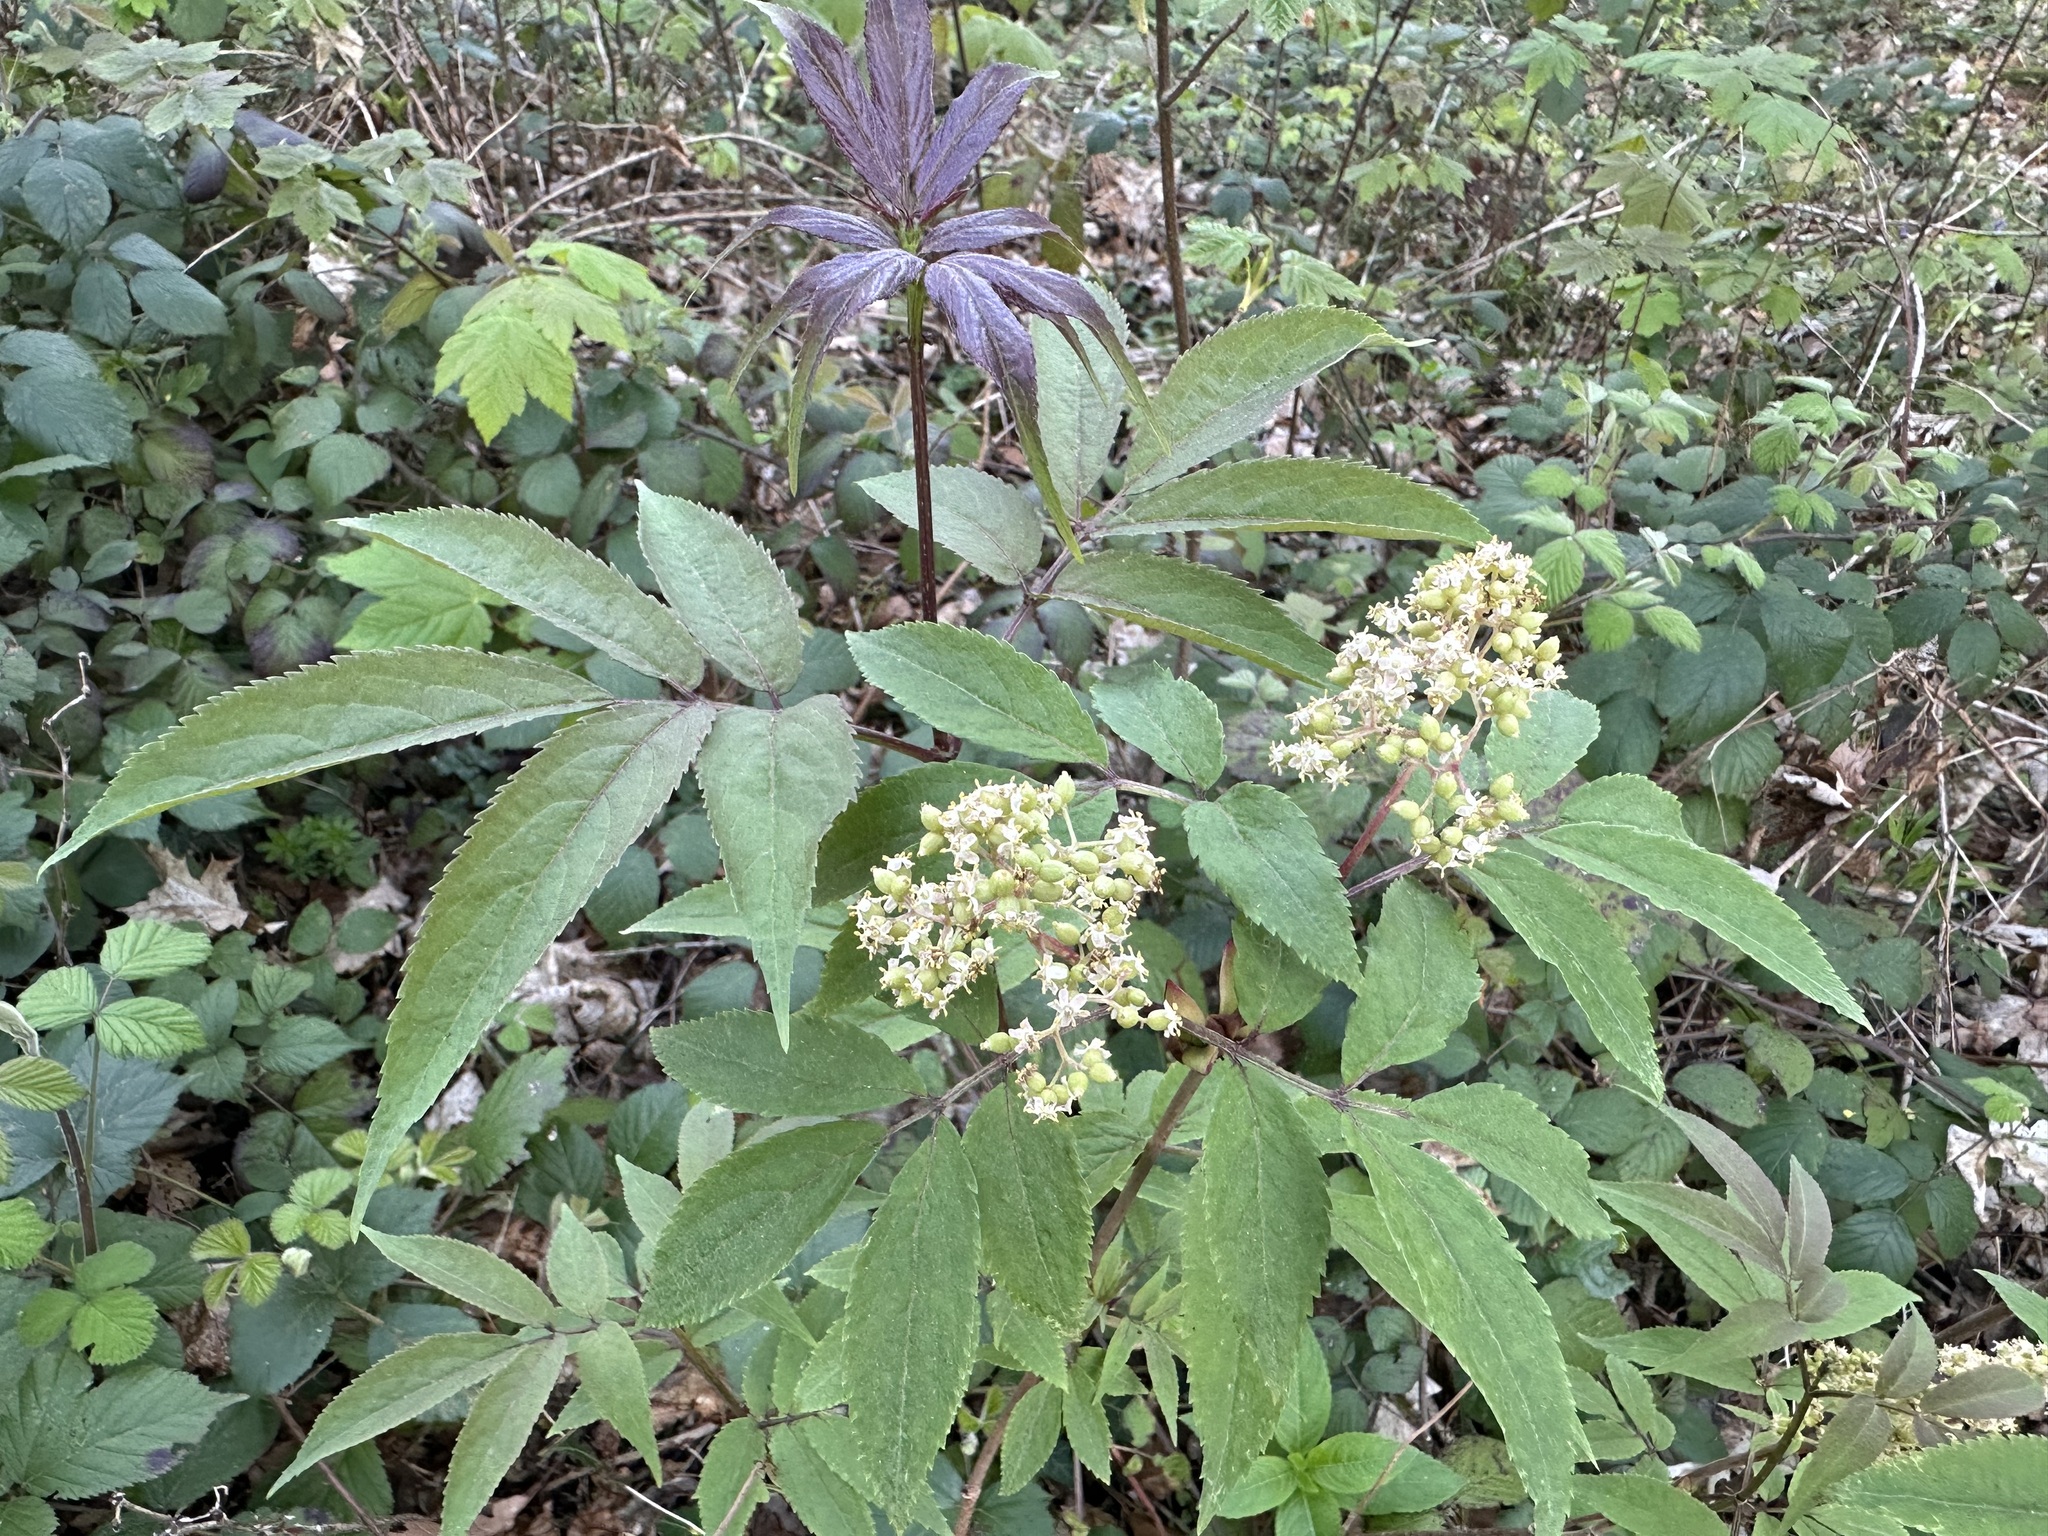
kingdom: Plantae
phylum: Tracheophyta
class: Magnoliopsida
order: Dipsacales
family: Viburnaceae
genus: Sambucus
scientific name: Sambucus racemosa
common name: Red-berried elder
